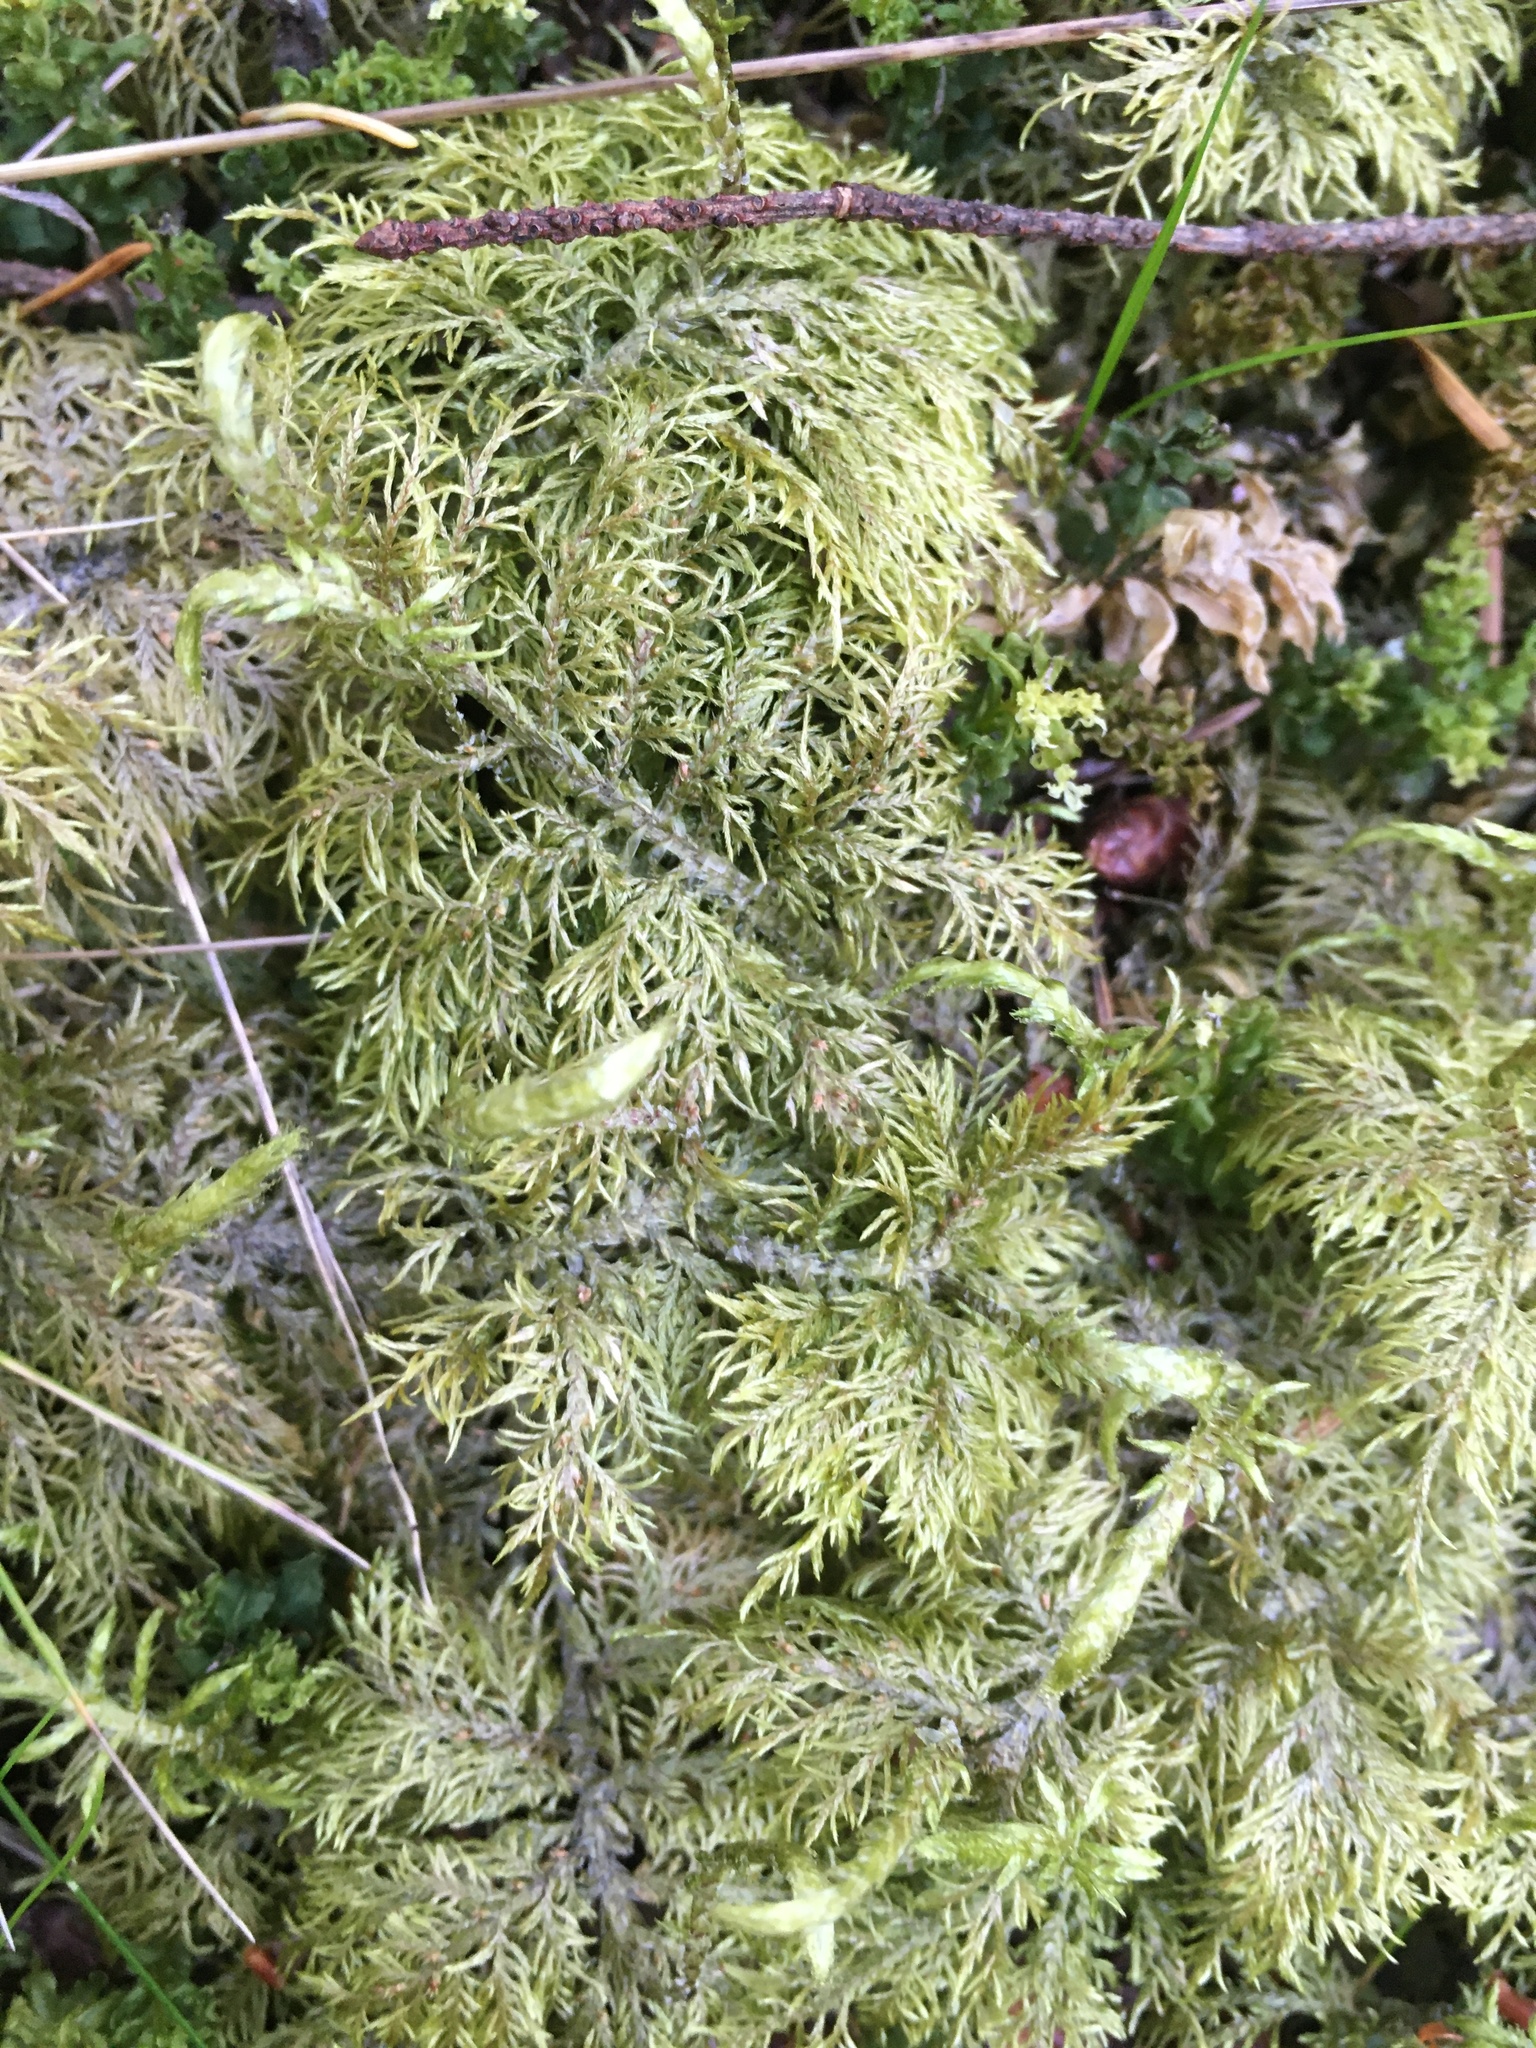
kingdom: Plantae
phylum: Bryophyta
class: Bryopsida
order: Hypnales
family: Hylocomiaceae
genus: Hylocomium
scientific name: Hylocomium splendens
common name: Stairstep moss
